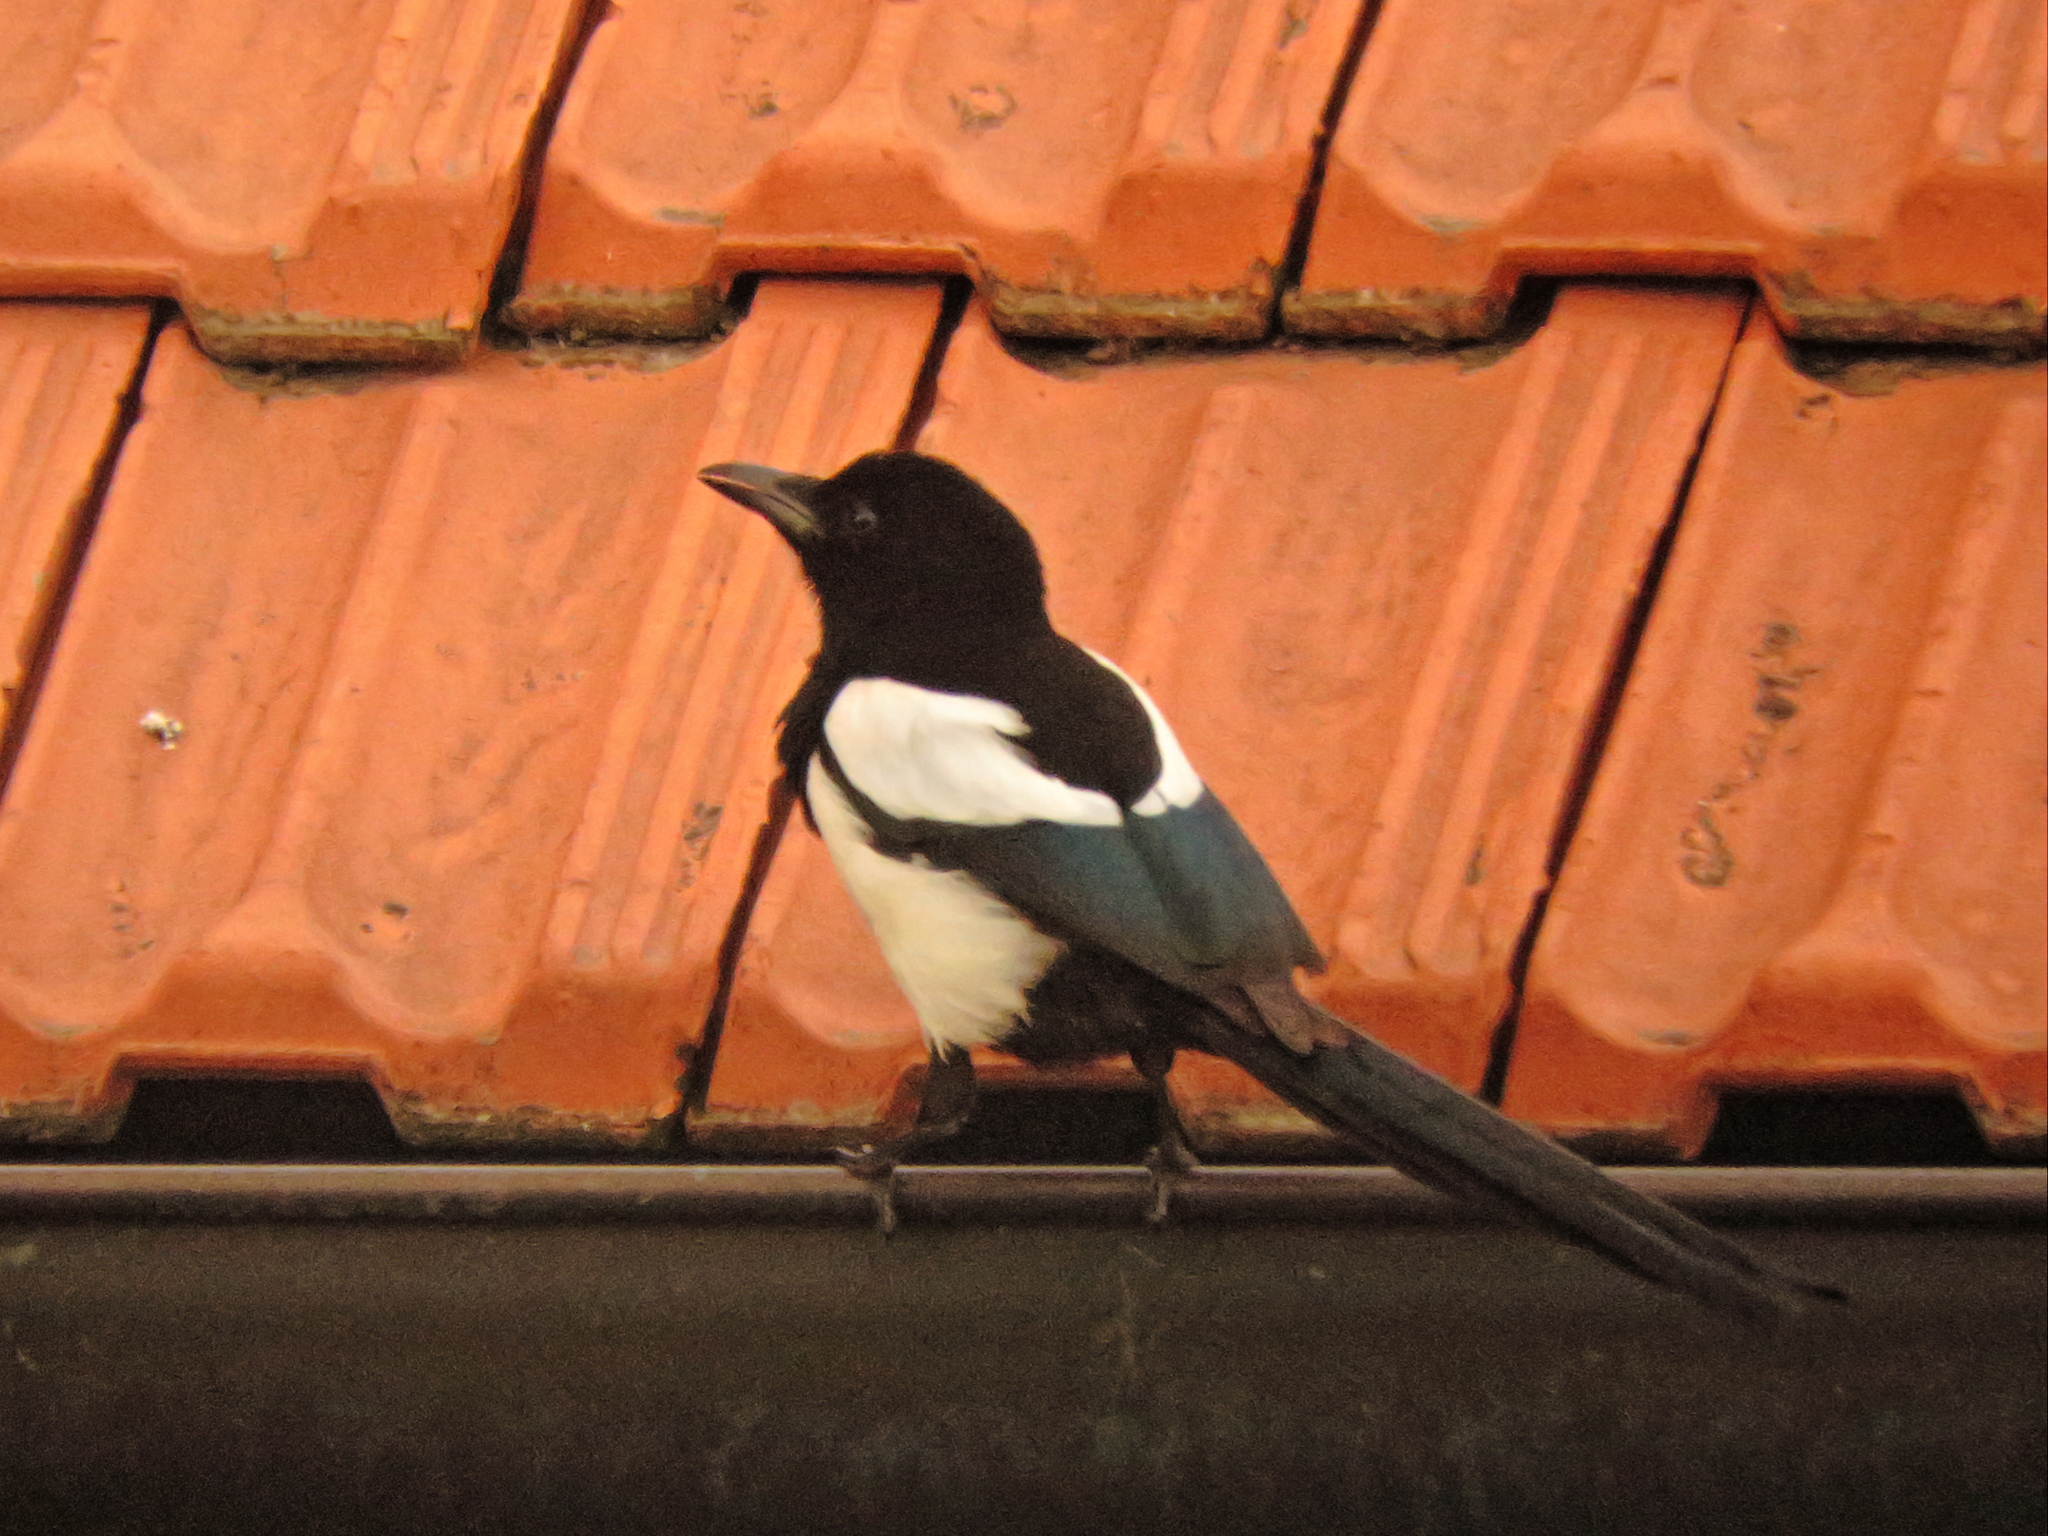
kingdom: Animalia
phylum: Chordata
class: Aves
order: Passeriformes
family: Corvidae
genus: Pica
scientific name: Pica pica
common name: Eurasian magpie
